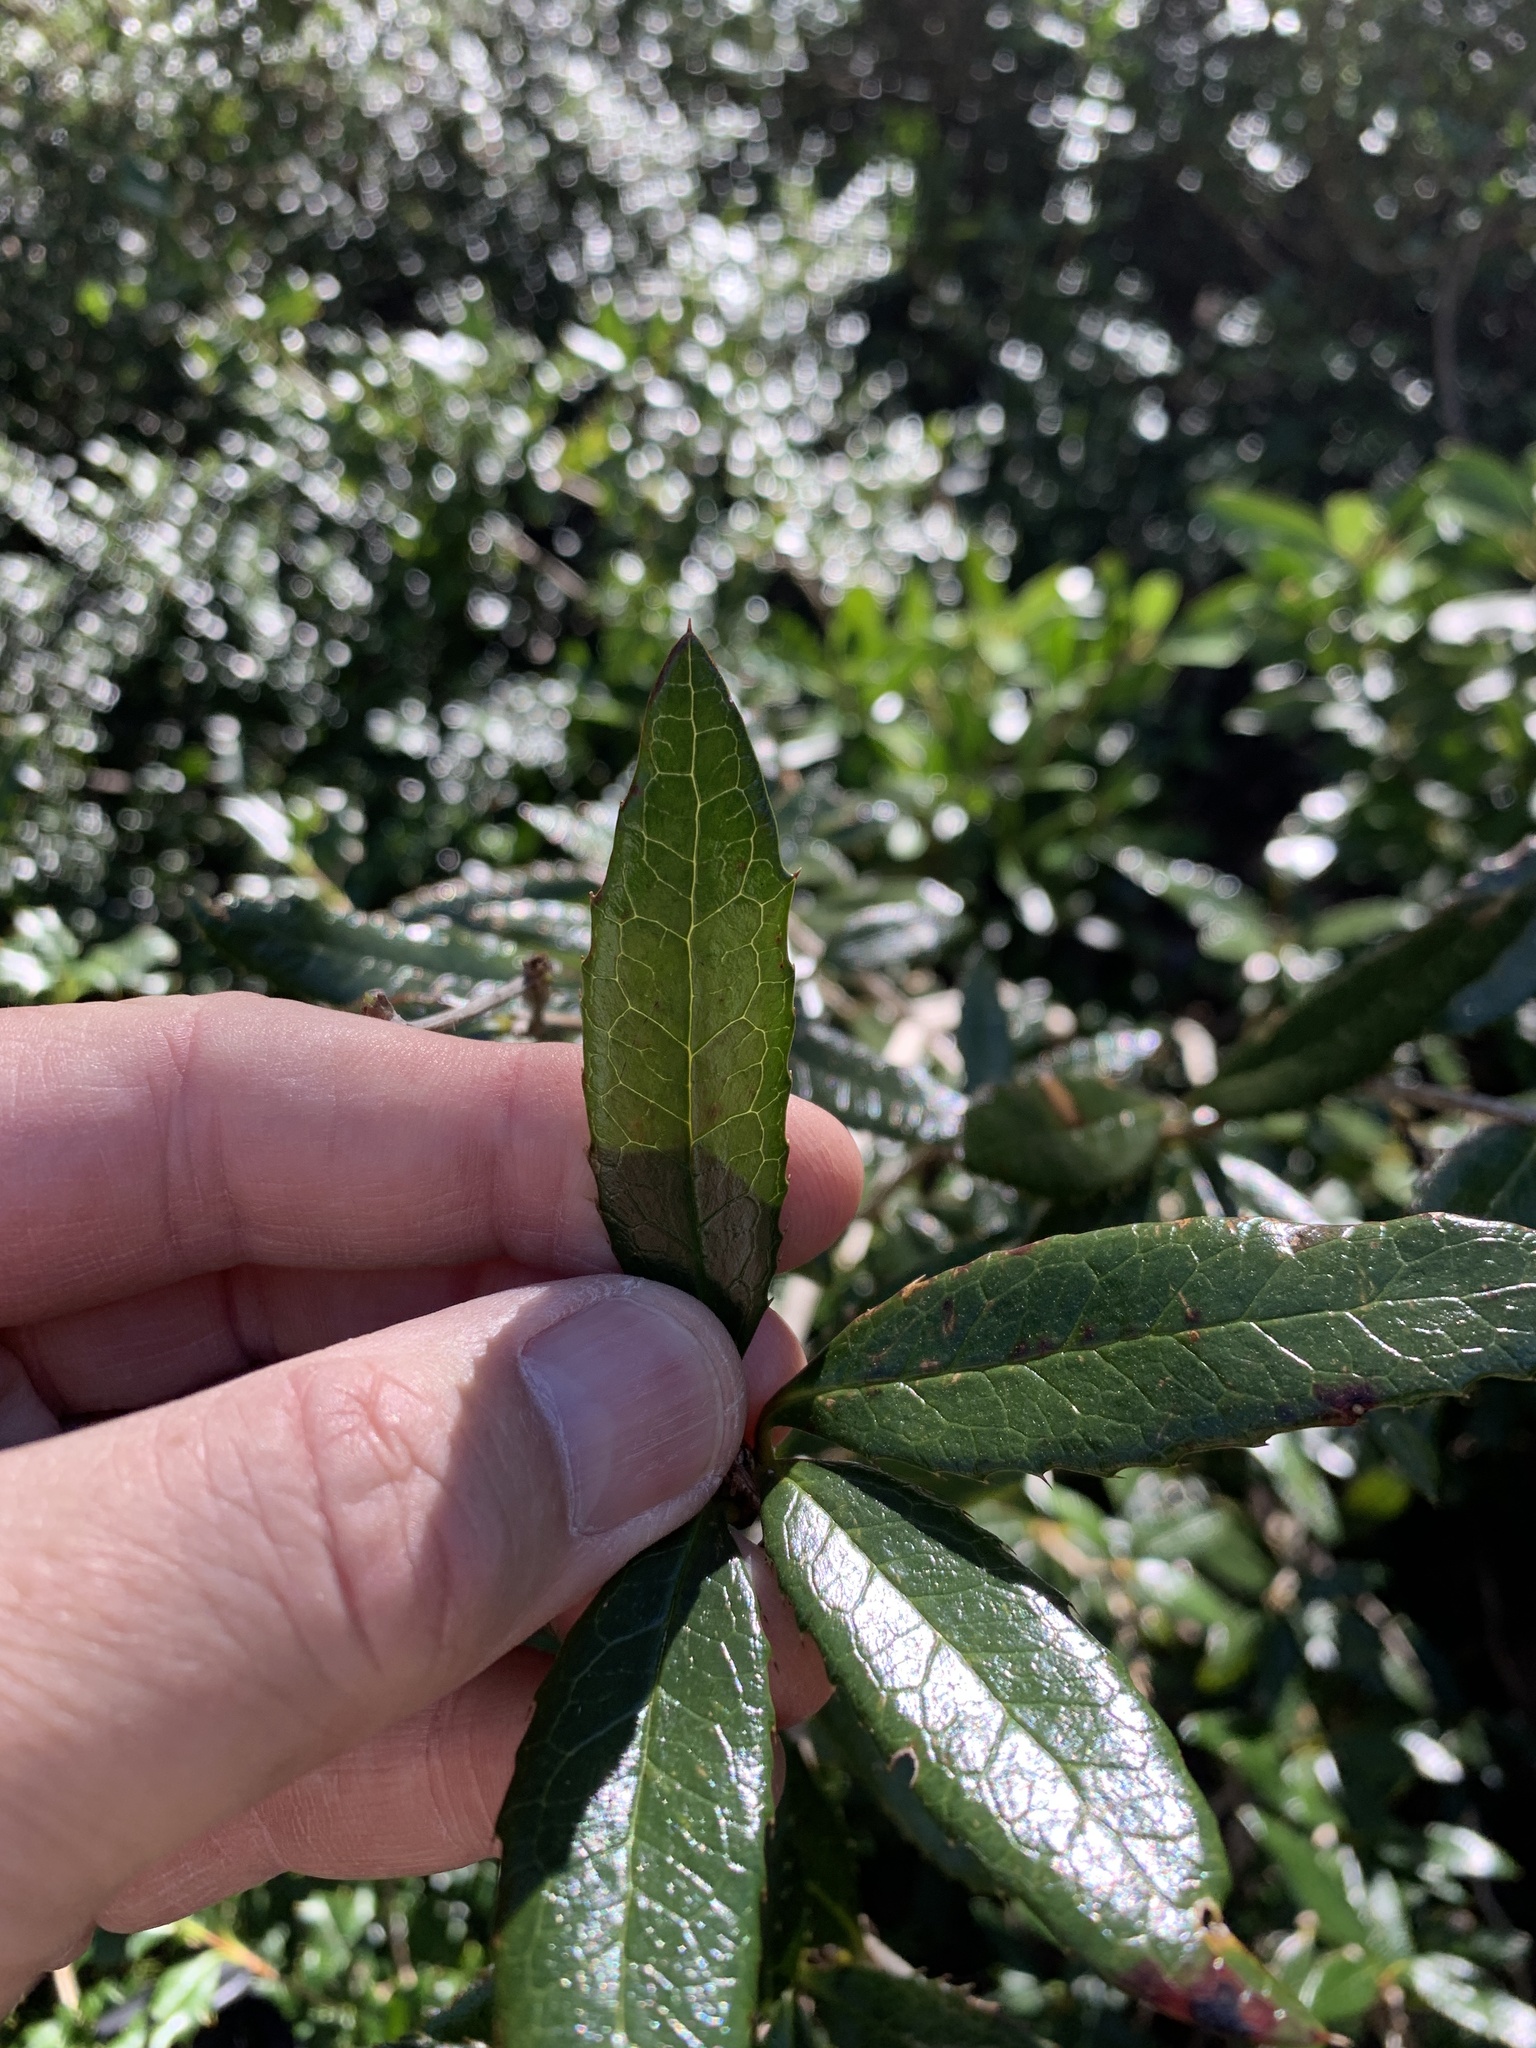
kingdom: Plantae
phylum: Tracheophyta
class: Magnoliopsida
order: Ranunculales
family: Berberidaceae
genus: Berberis
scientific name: Berberis pseudoilicifolia
